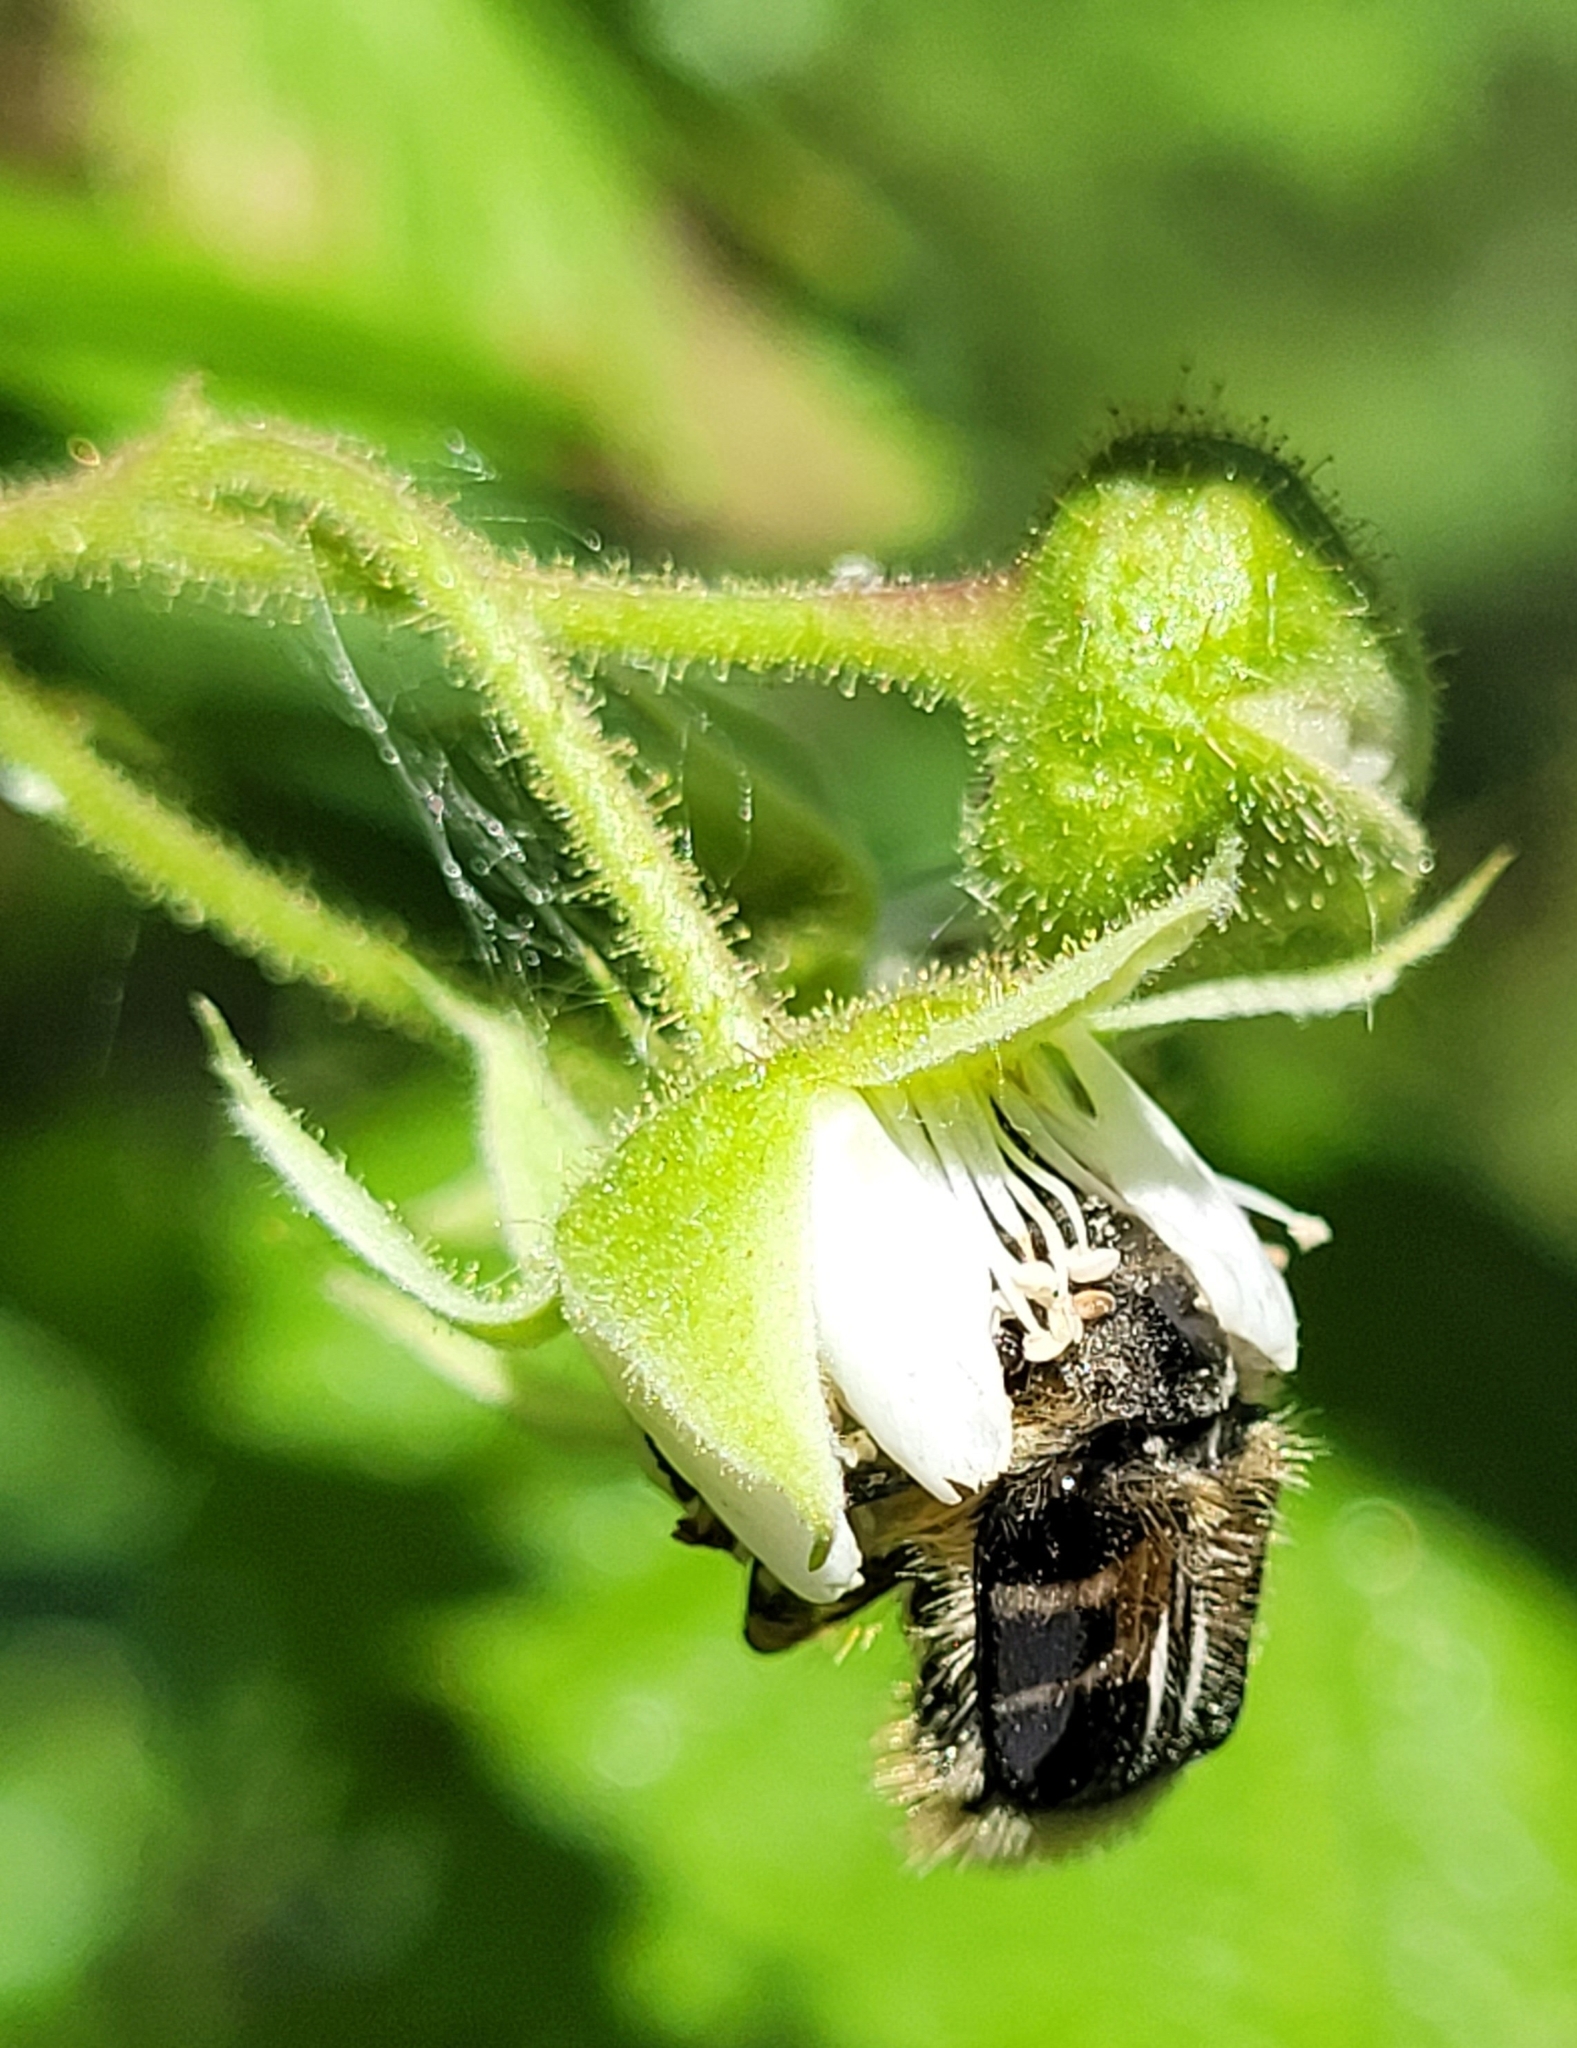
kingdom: Animalia
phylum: Arthropoda
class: Insecta
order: Coleoptera
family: Scarabaeidae
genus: Trichiotinus
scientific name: Trichiotinus assimilis
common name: Bee-mimic beetle
